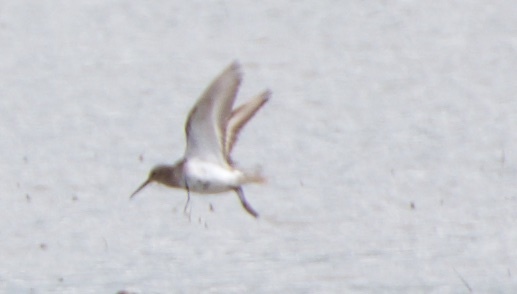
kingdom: Animalia
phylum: Chordata
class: Aves
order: Charadriiformes
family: Scolopacidae
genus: Calidris
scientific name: Calidris alpina
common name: Dunlin
